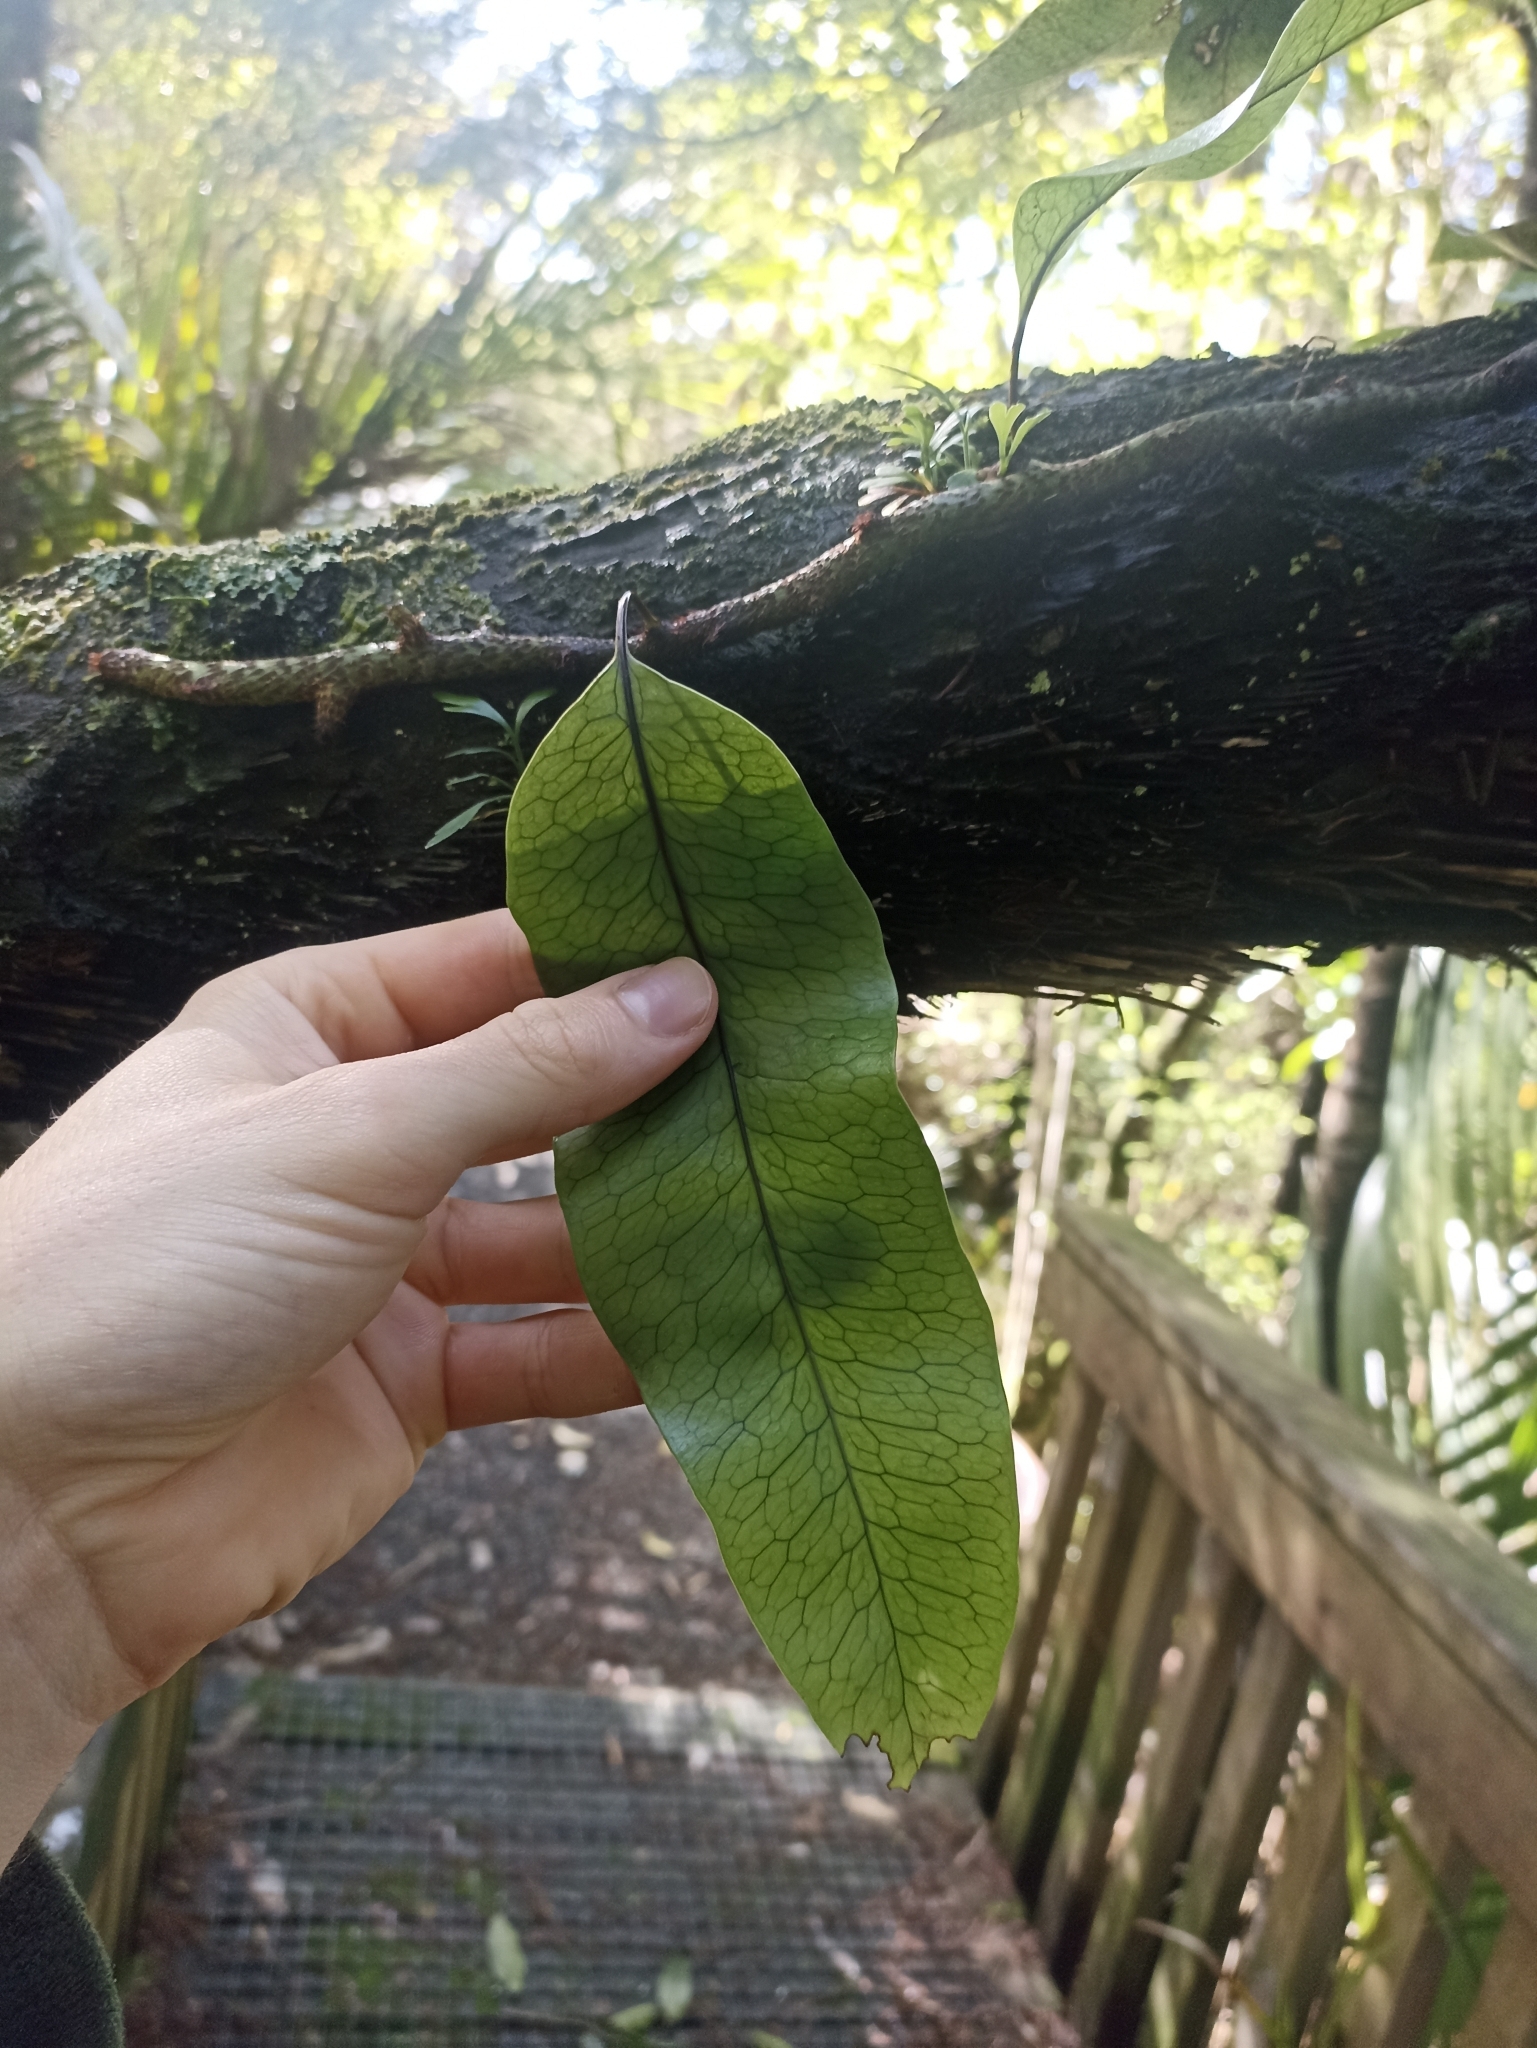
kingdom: Plantae
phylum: Tracheophyta
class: Polypodiopsida
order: Polypodiales
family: Polypodiaceae
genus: Lecanopteris
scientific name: Lecanopteris pustulata
